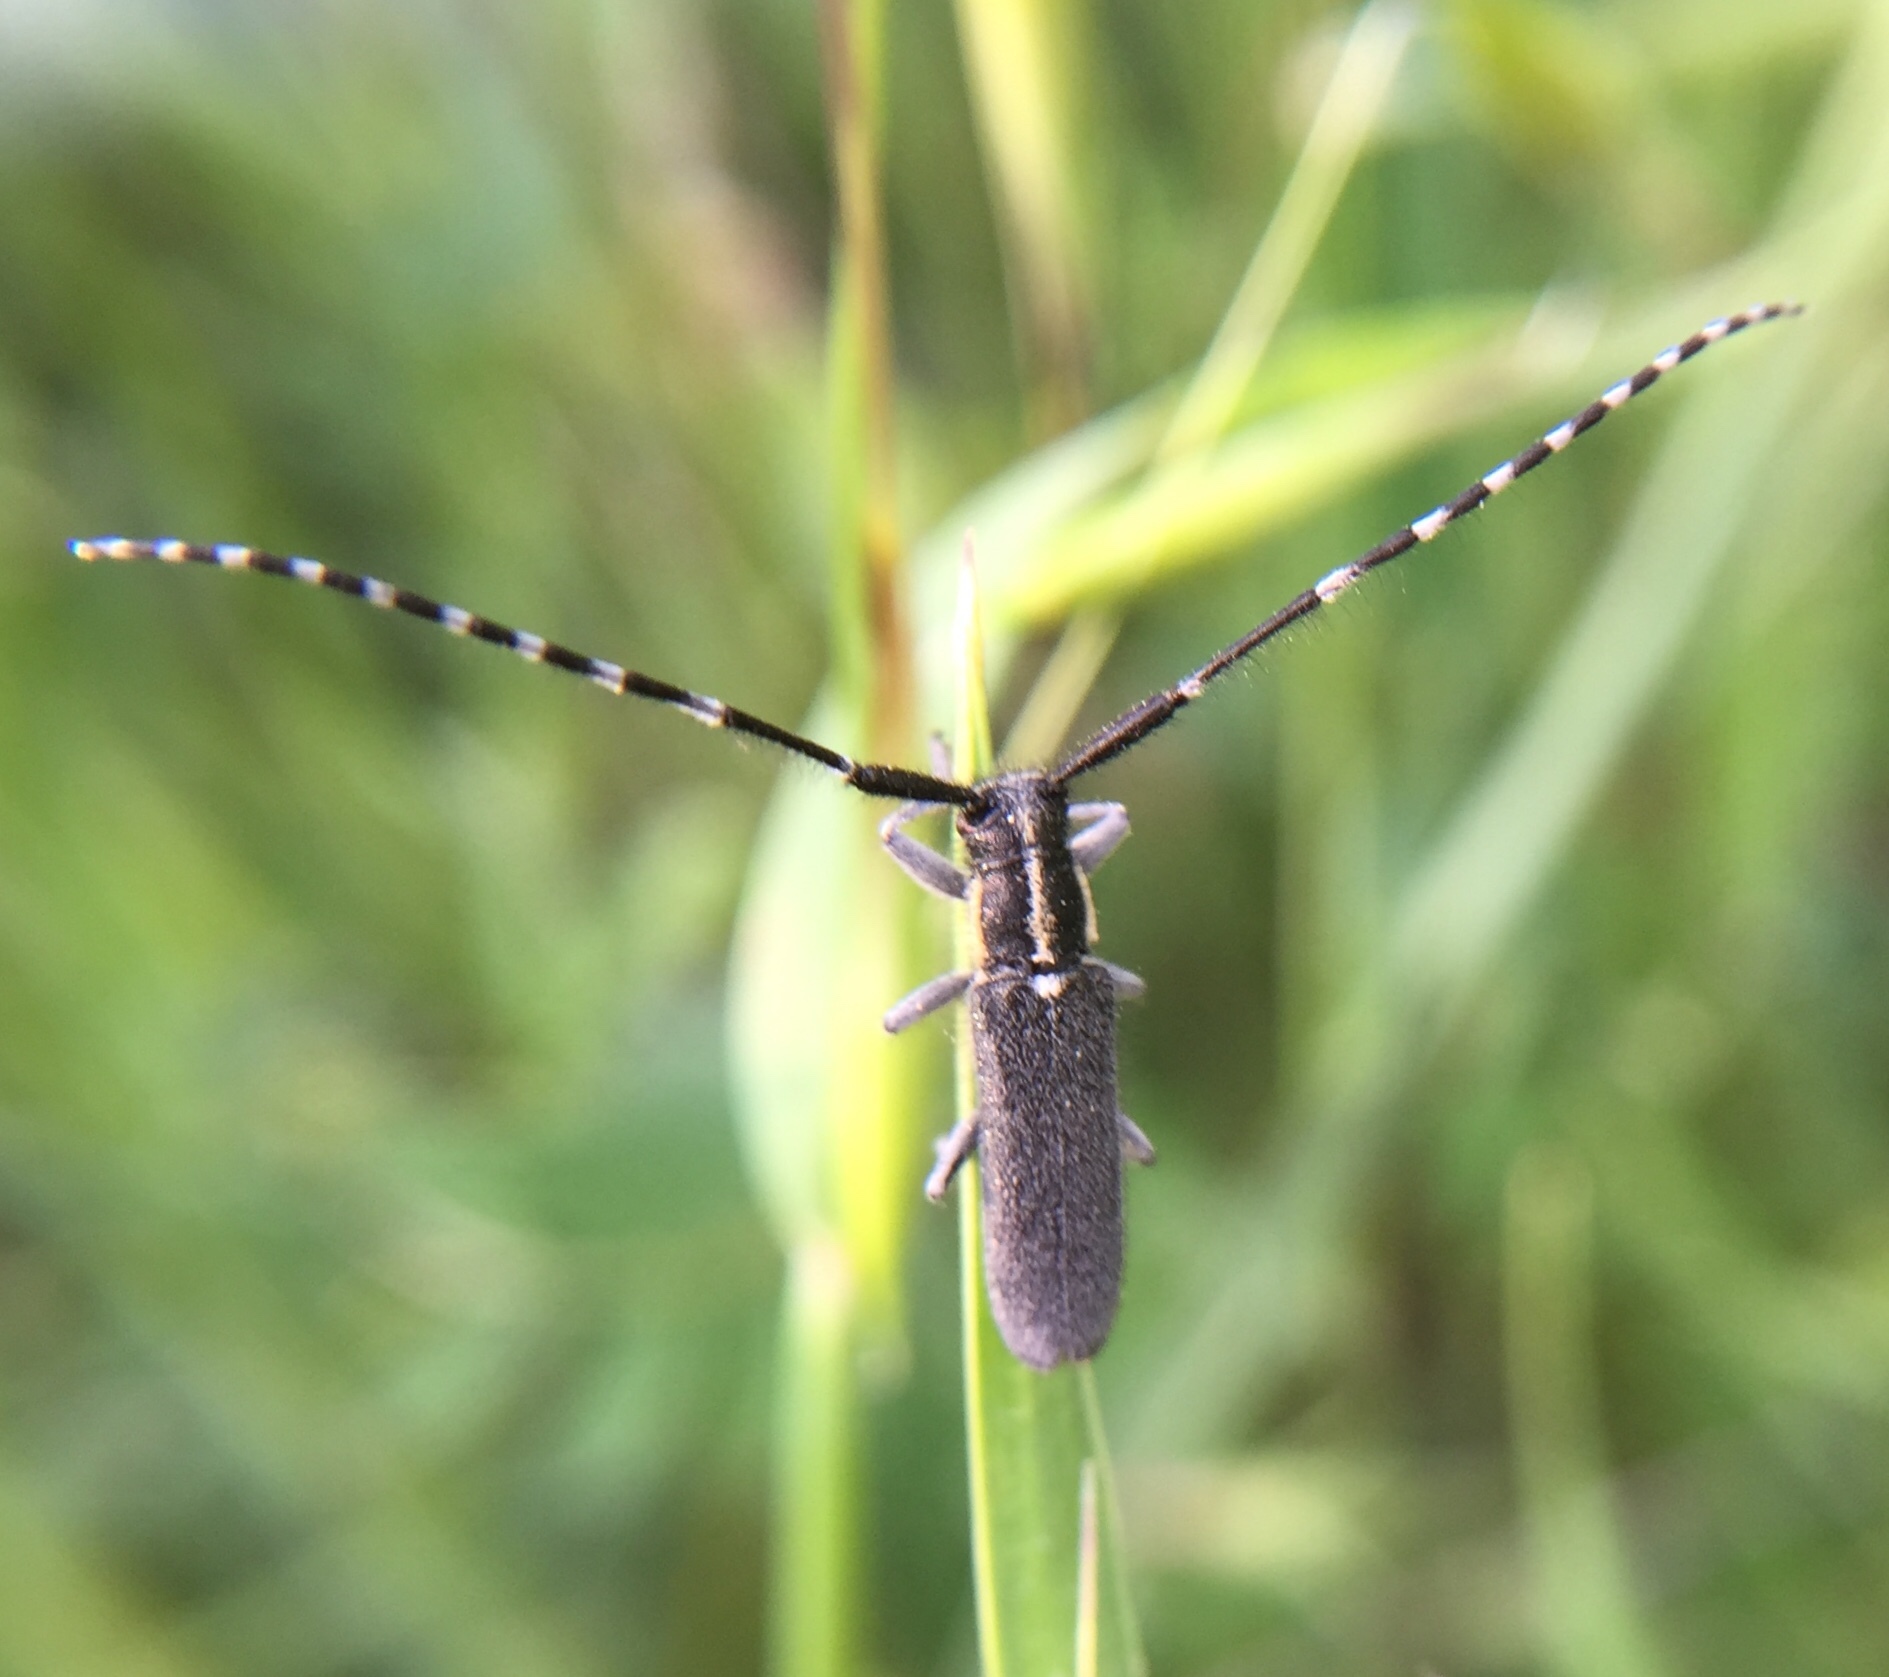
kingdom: Animalia
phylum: Arthropoda
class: Insecta
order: Coleoptera
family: Cerambycidae
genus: Agapanthia
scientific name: Agapanthia maculicornis
